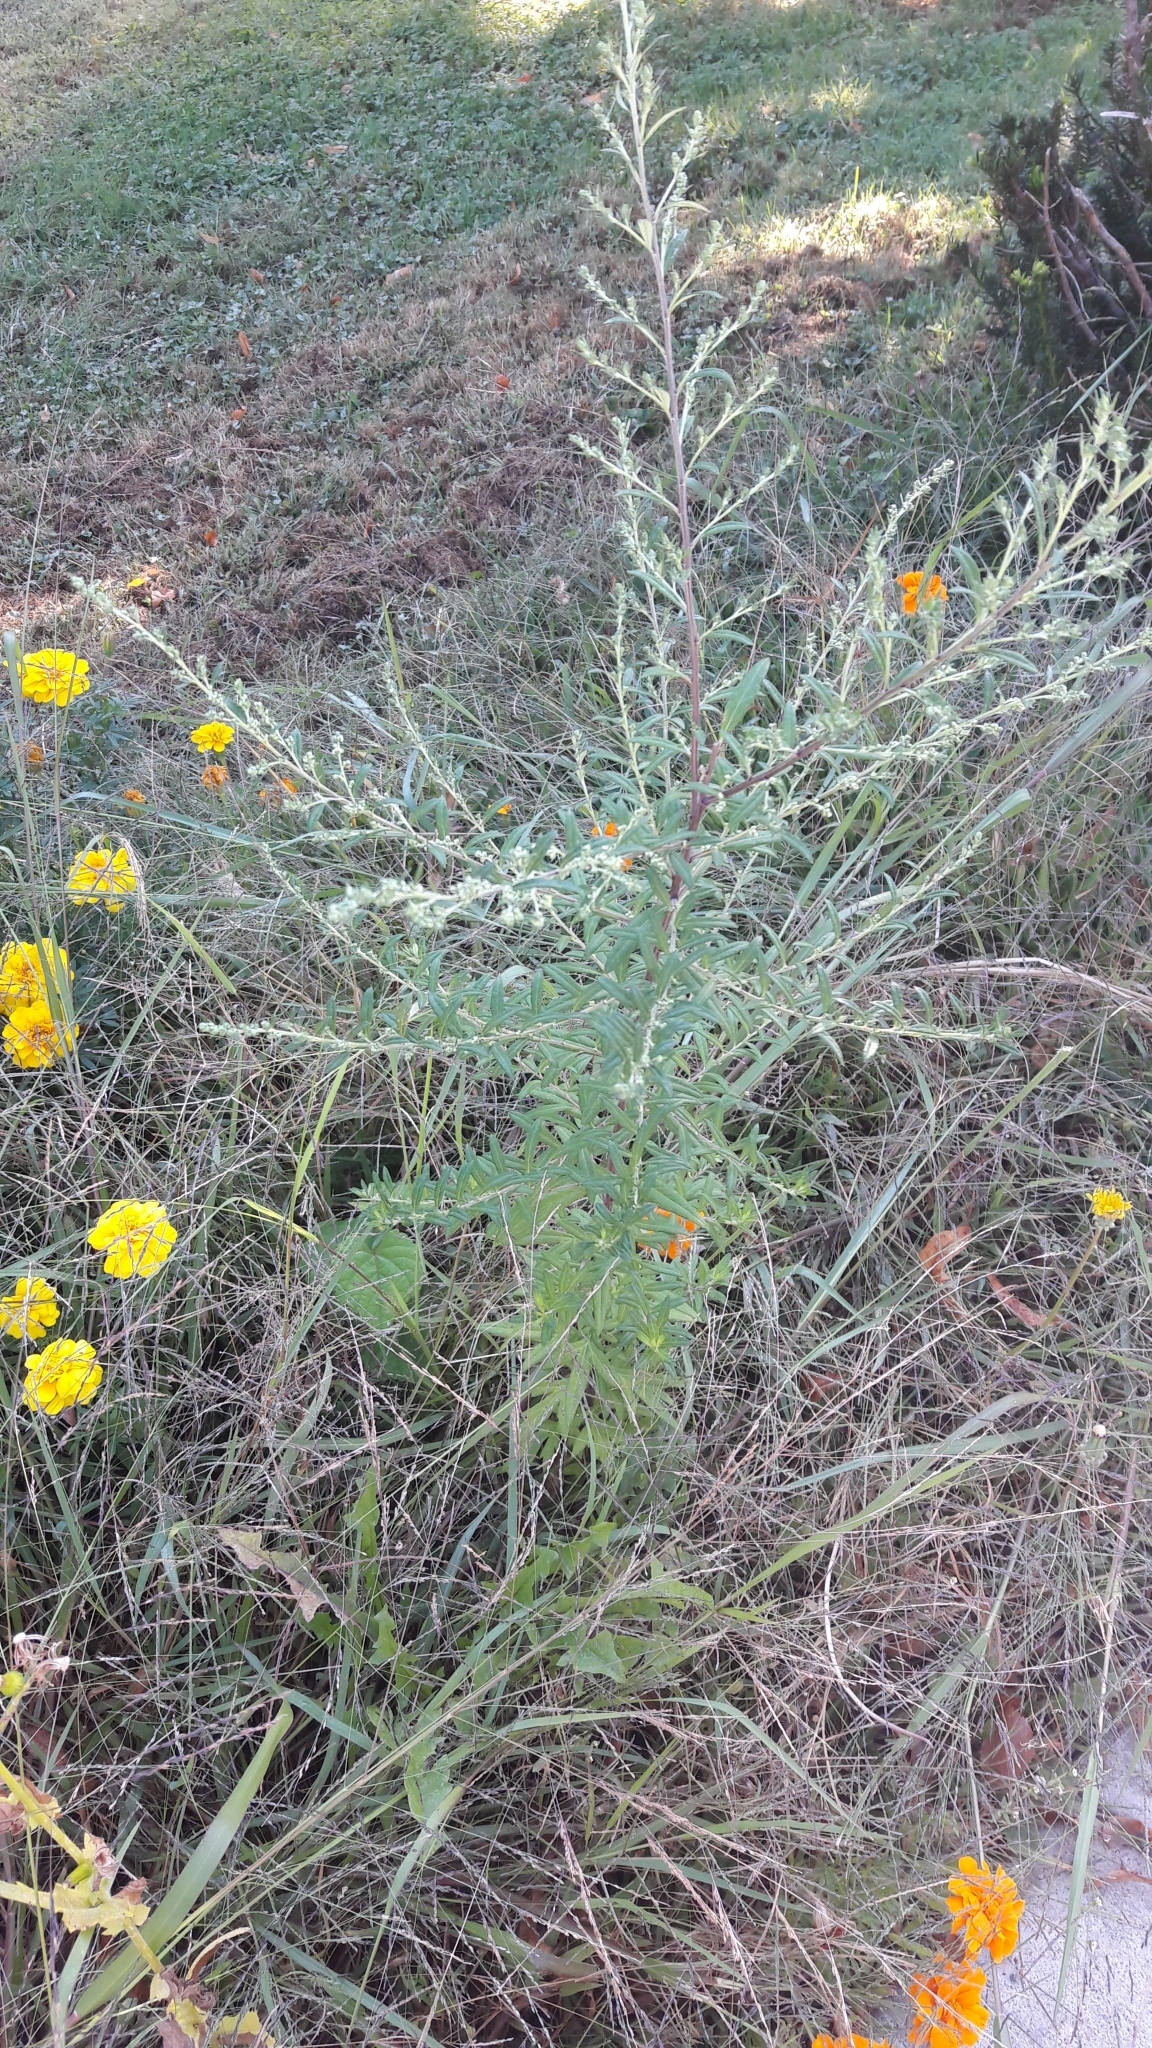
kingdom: Plantae
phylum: Tracheophyta
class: Magnoliopsida
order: Asterales
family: Asteraceae
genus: Artemisia
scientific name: Artemisia vulgaris
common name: Mugwort
